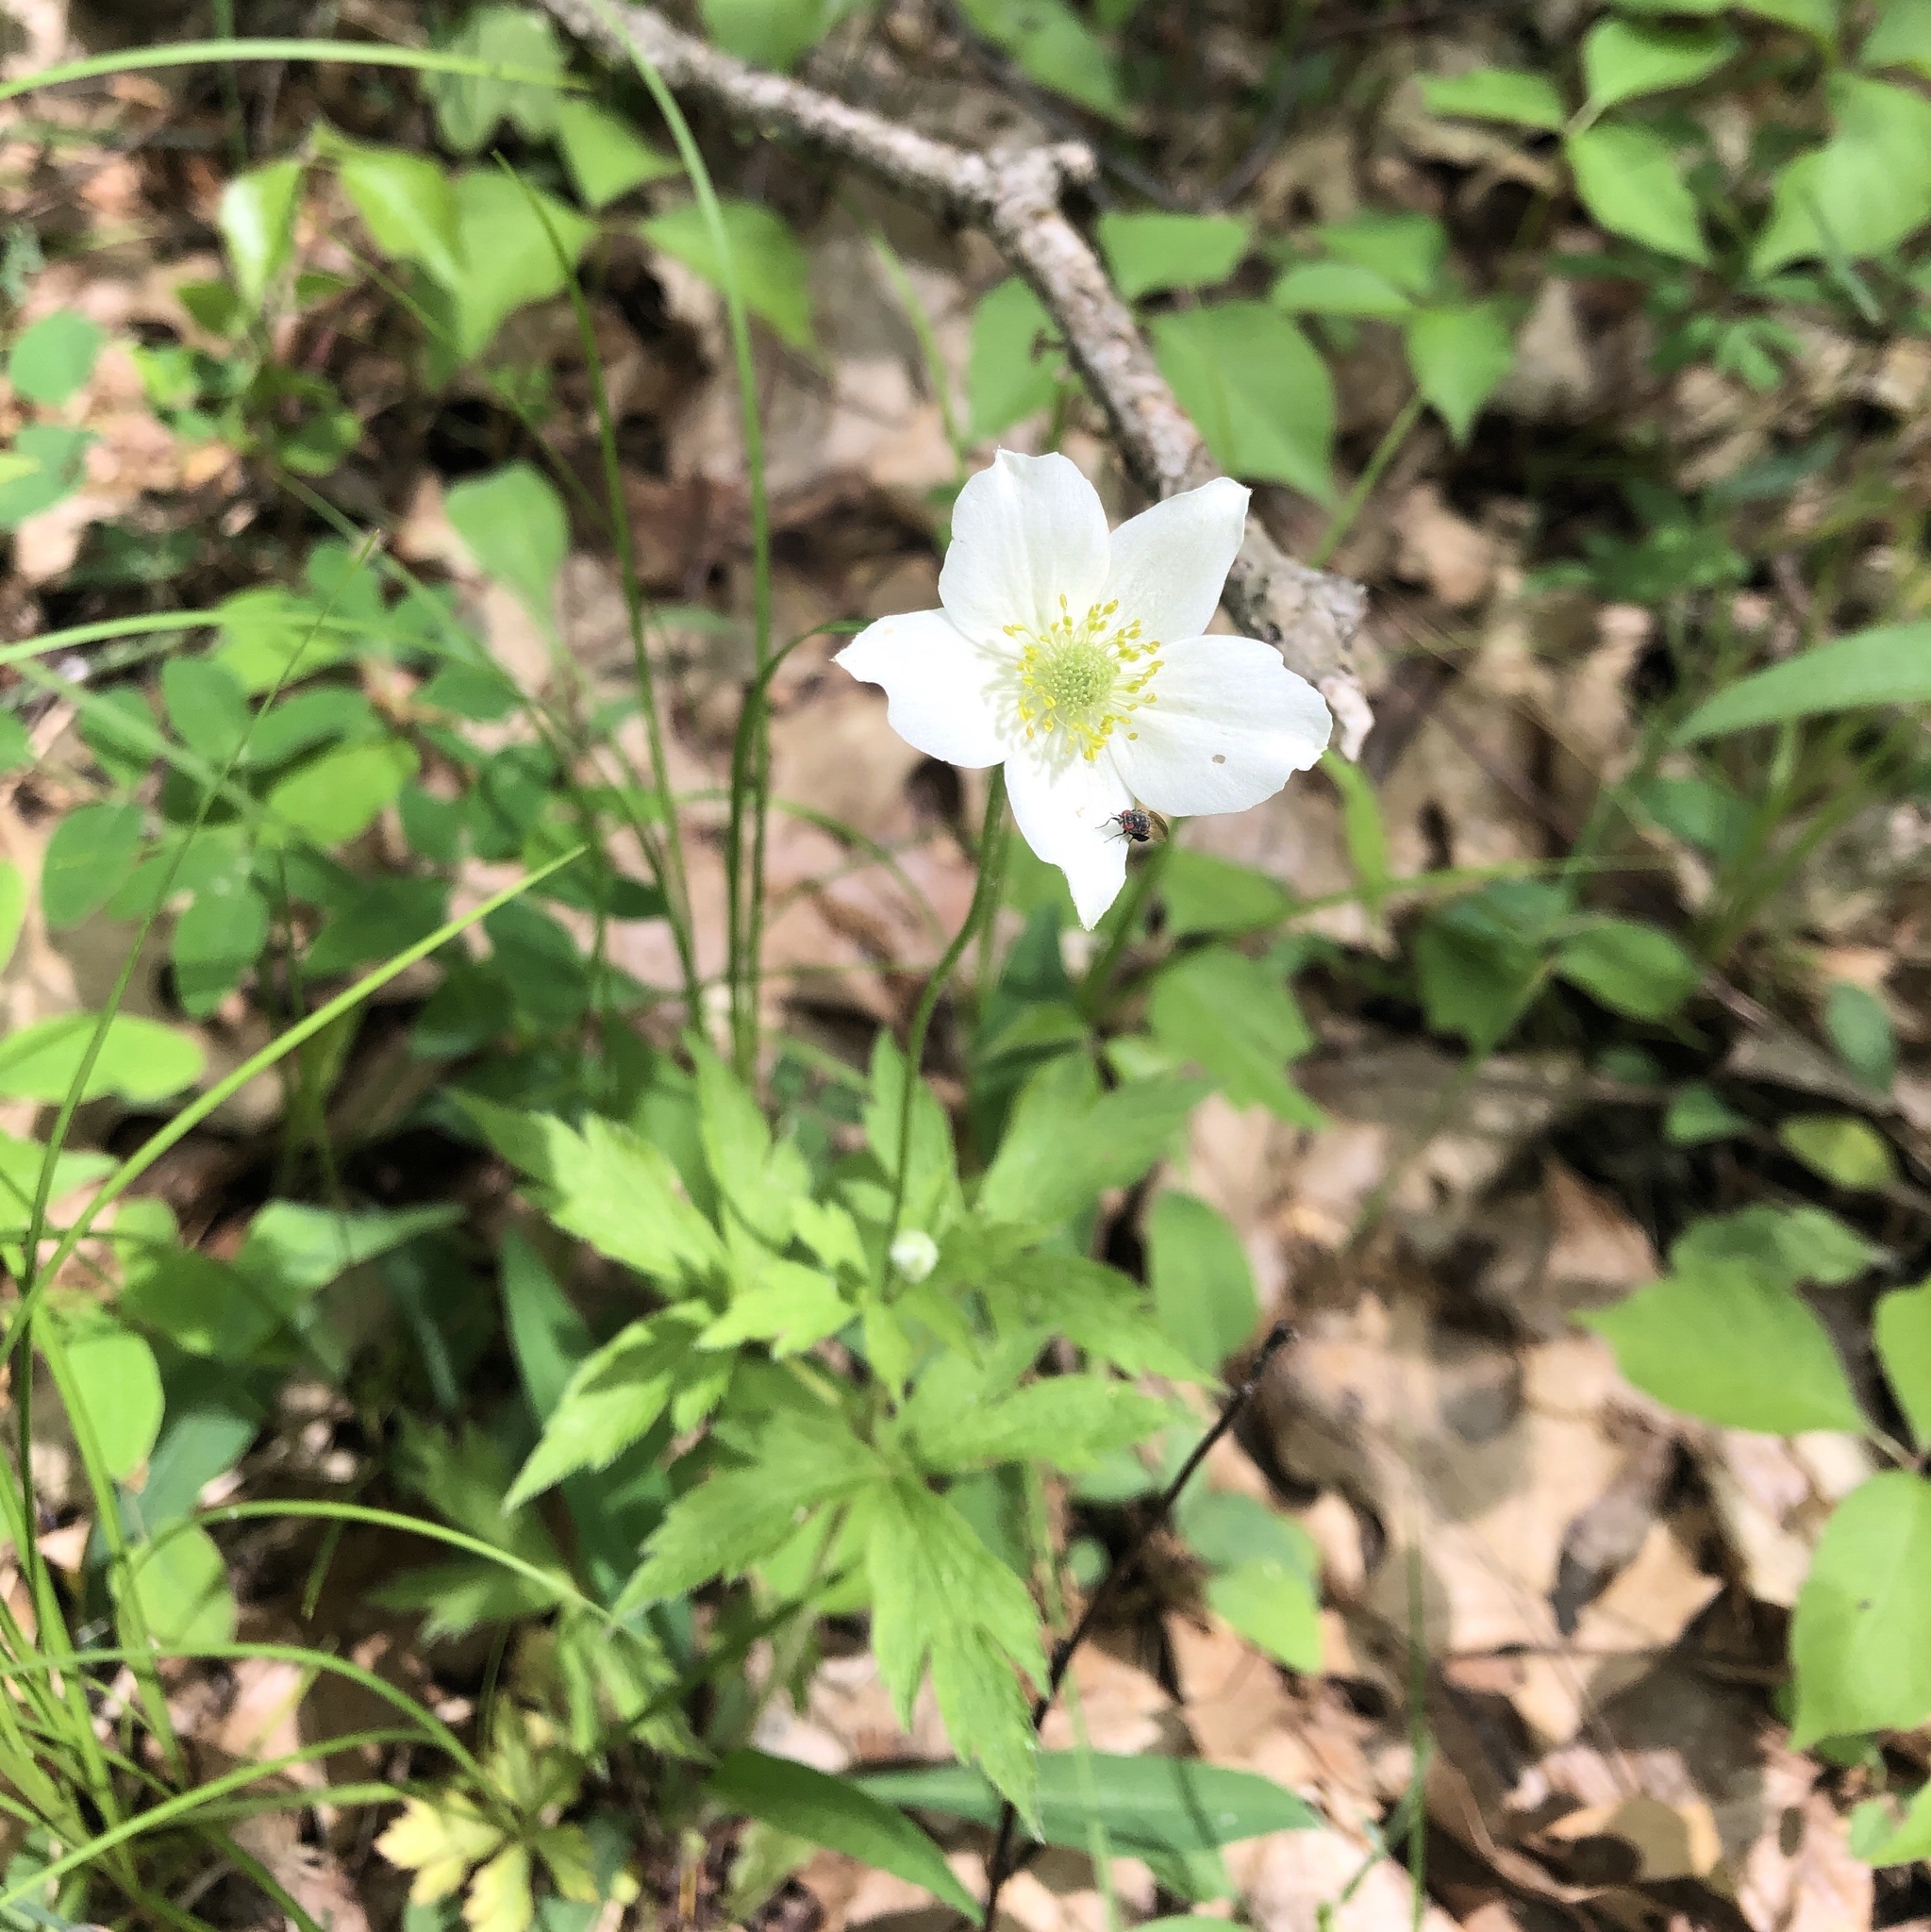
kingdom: Plantae
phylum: Tracheophyta
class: Magnoliopsida
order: Ranunculales
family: Ranunculaceae
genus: Anemone
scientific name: Anemone virginiana
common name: Tall anemone
